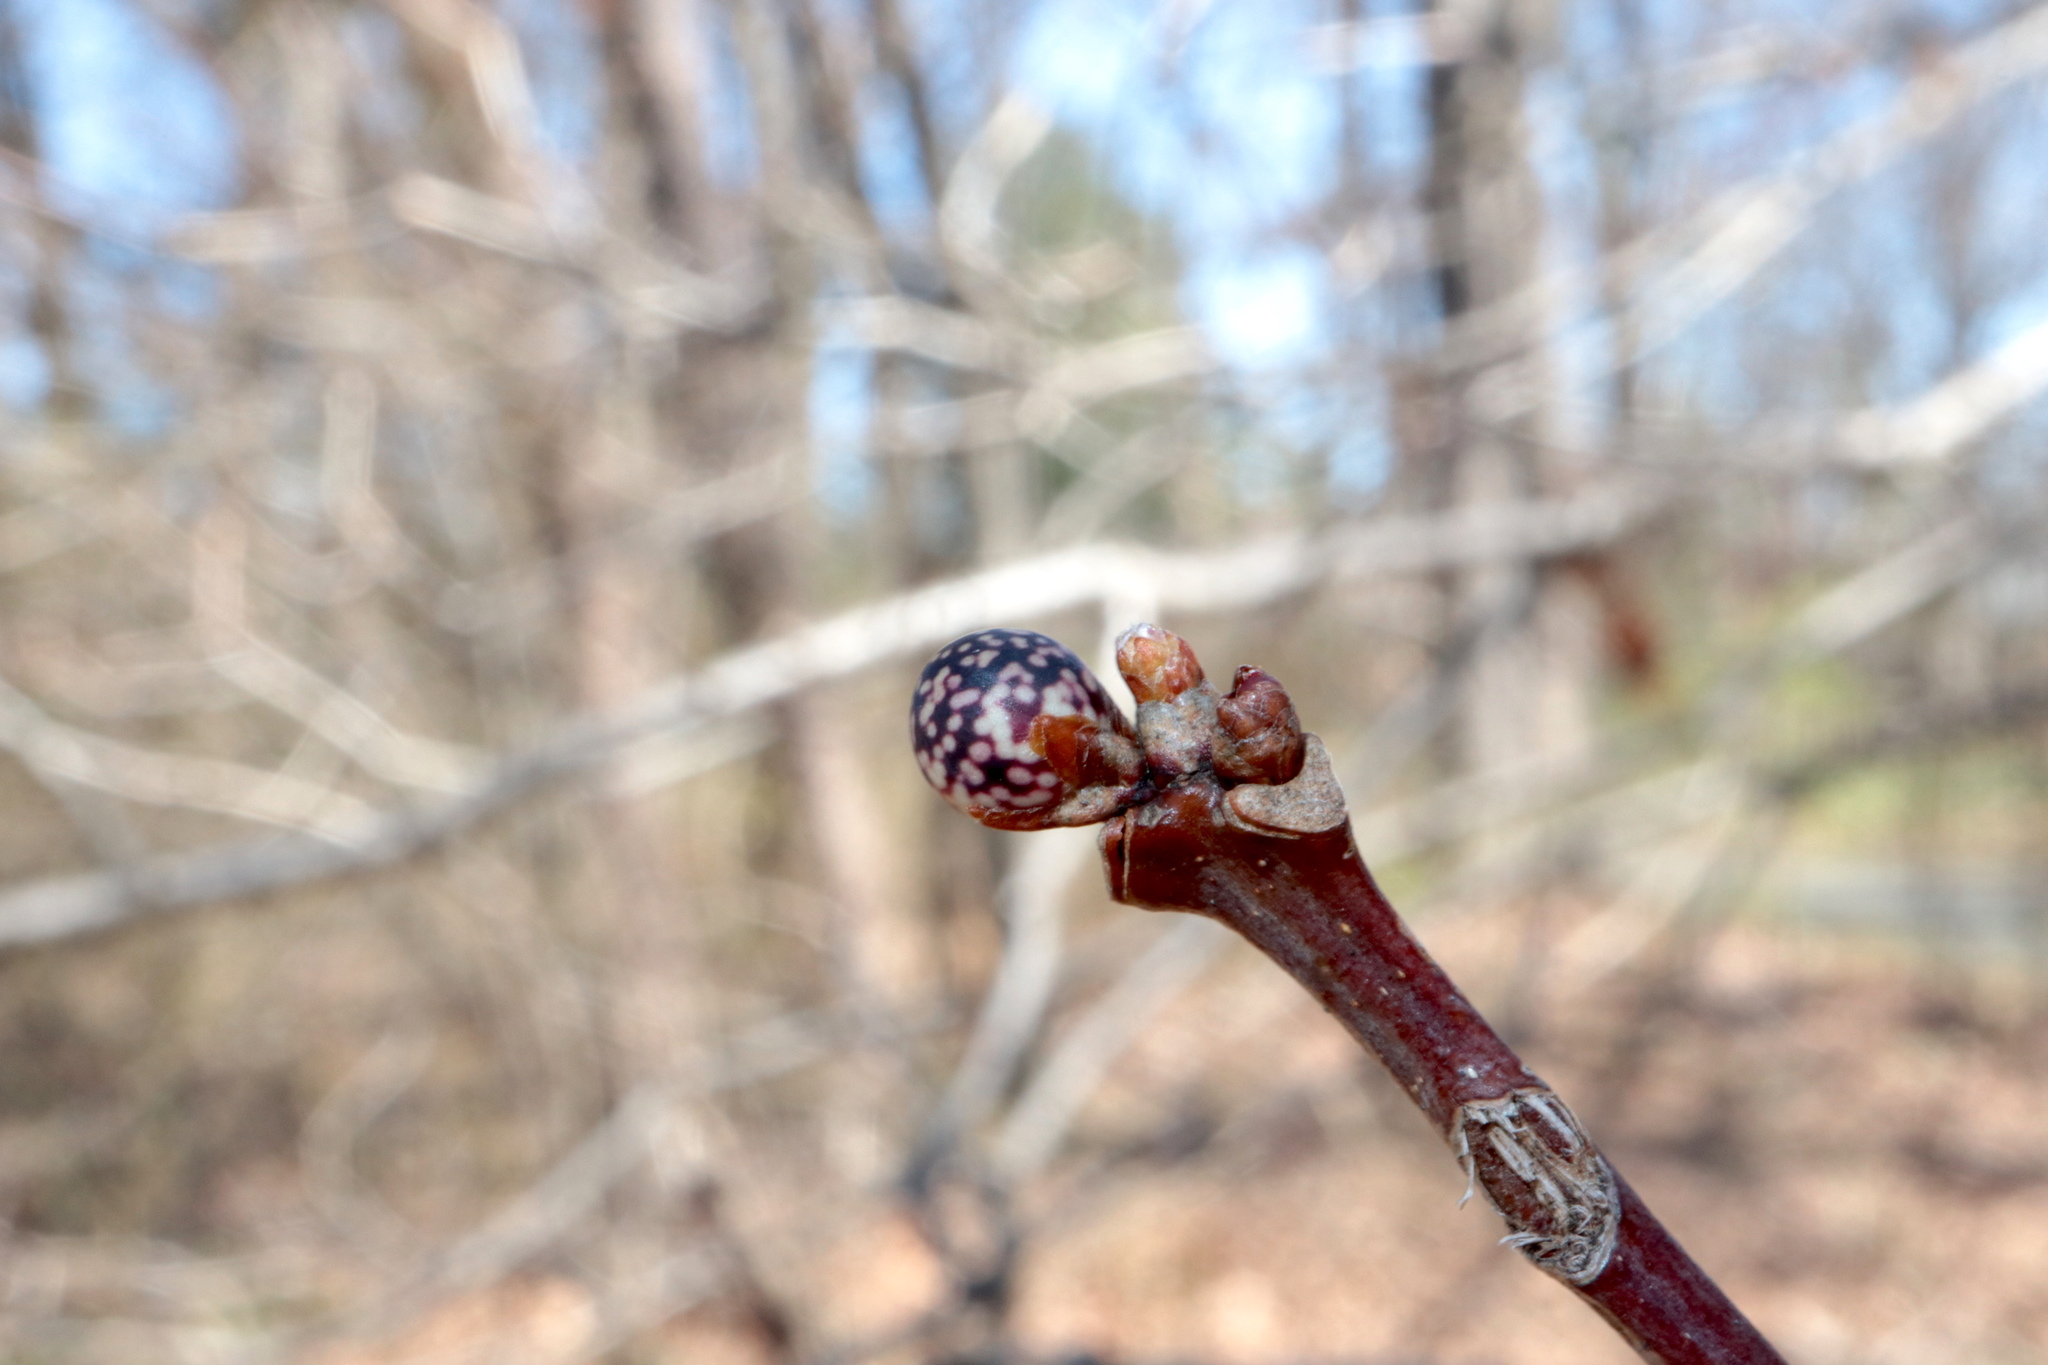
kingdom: Animalia
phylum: Arthropoda
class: Insecta
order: Hymenoptera
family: Cynipidae
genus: Andricus
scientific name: Andricus
